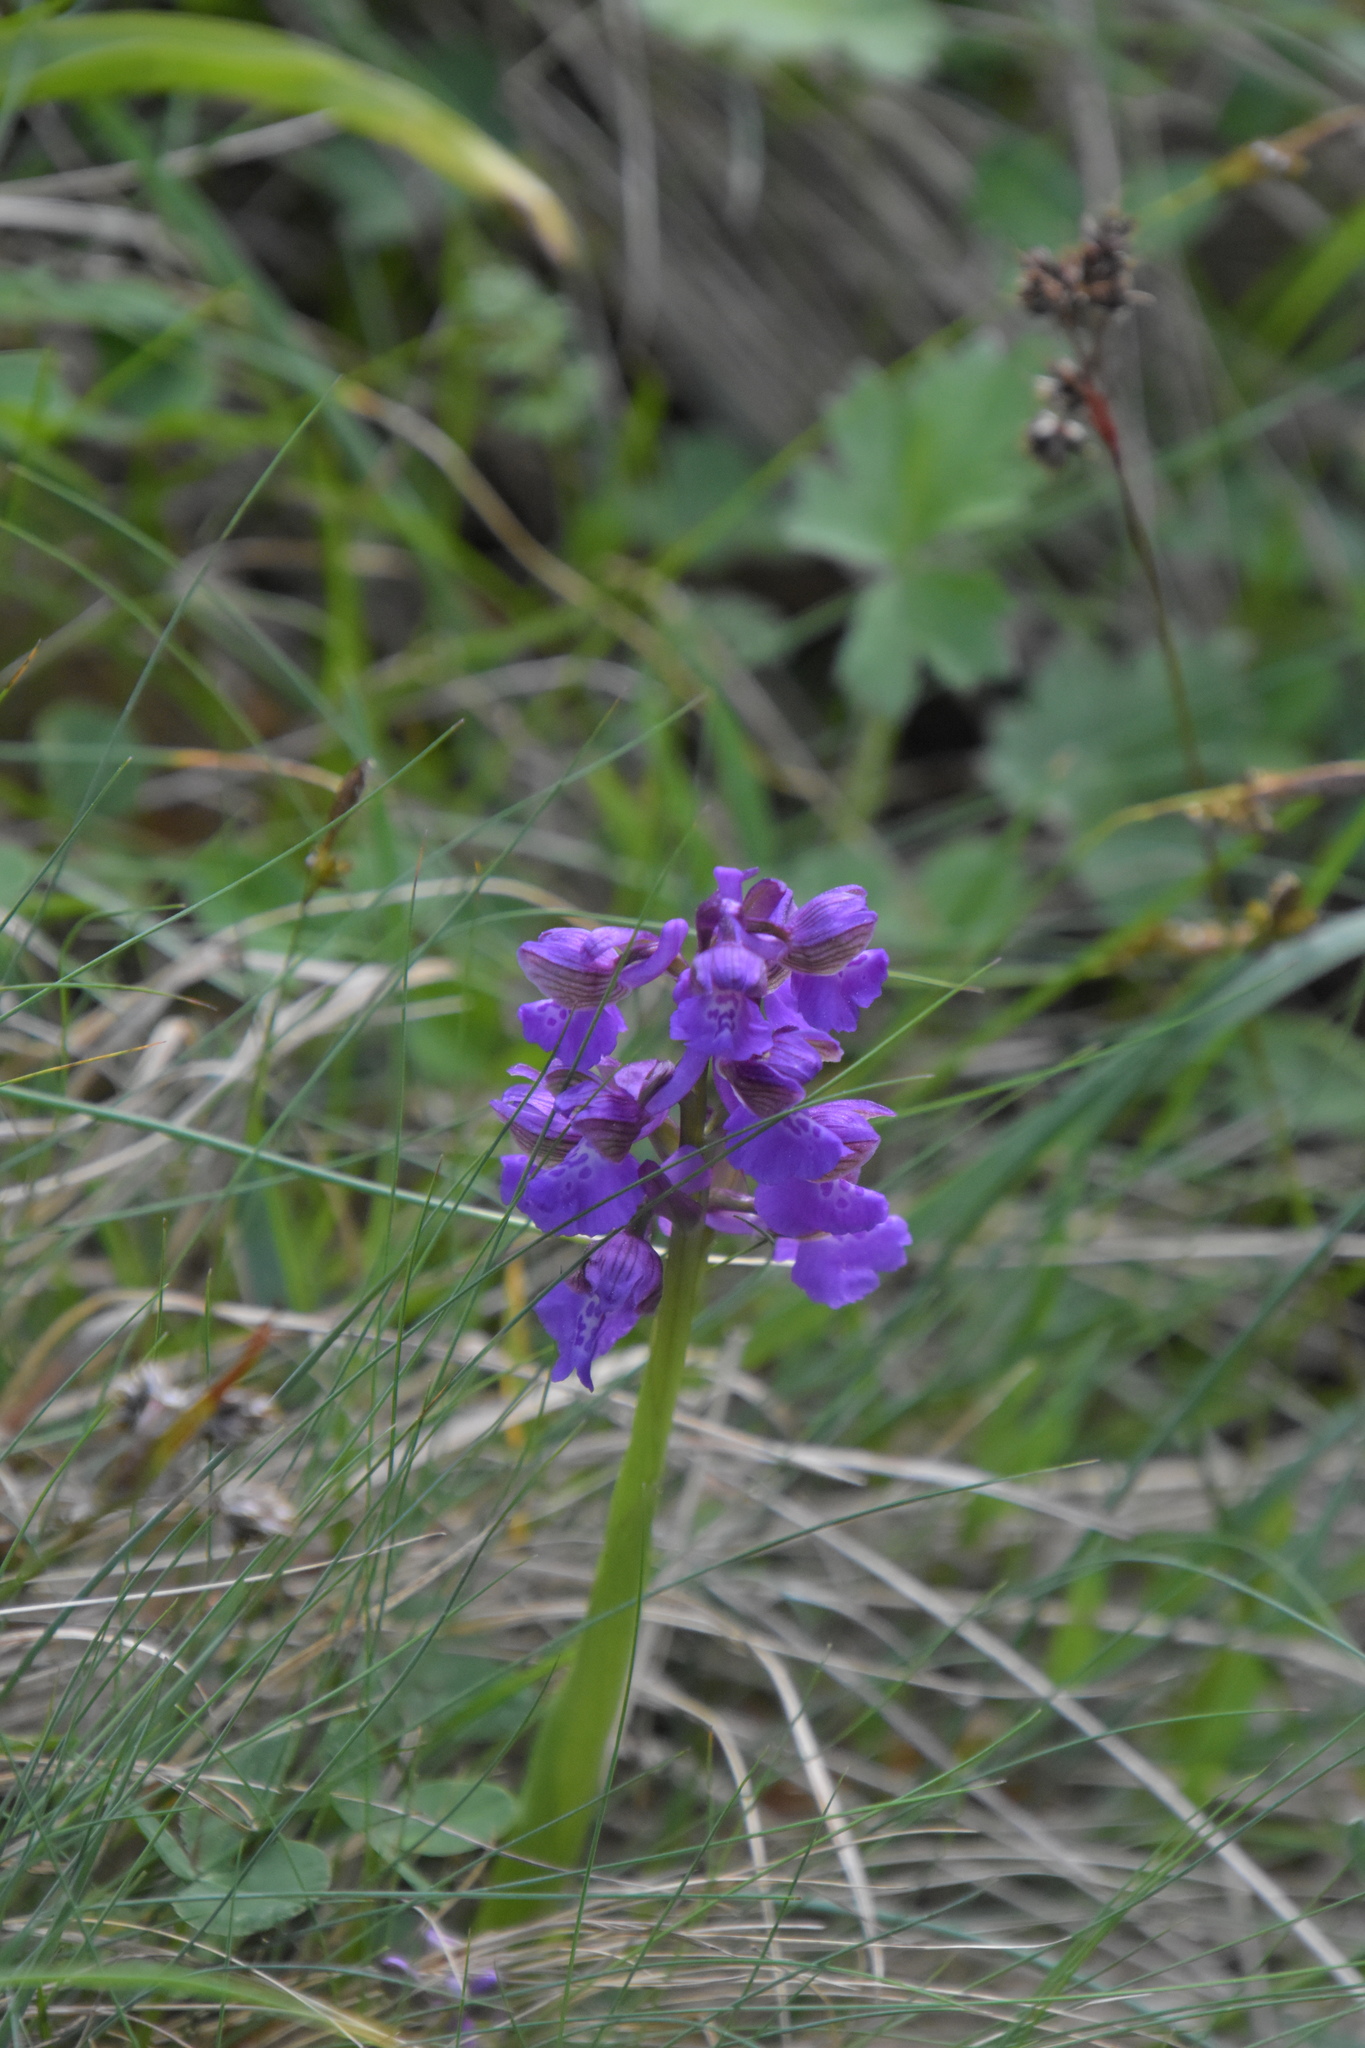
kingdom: Plantae
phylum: Tracheophyta
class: Liliopsida
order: Asparagales
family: Orchidaceae
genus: Anacamptis
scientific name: Anacamptis morio
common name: Green-winged orchid
